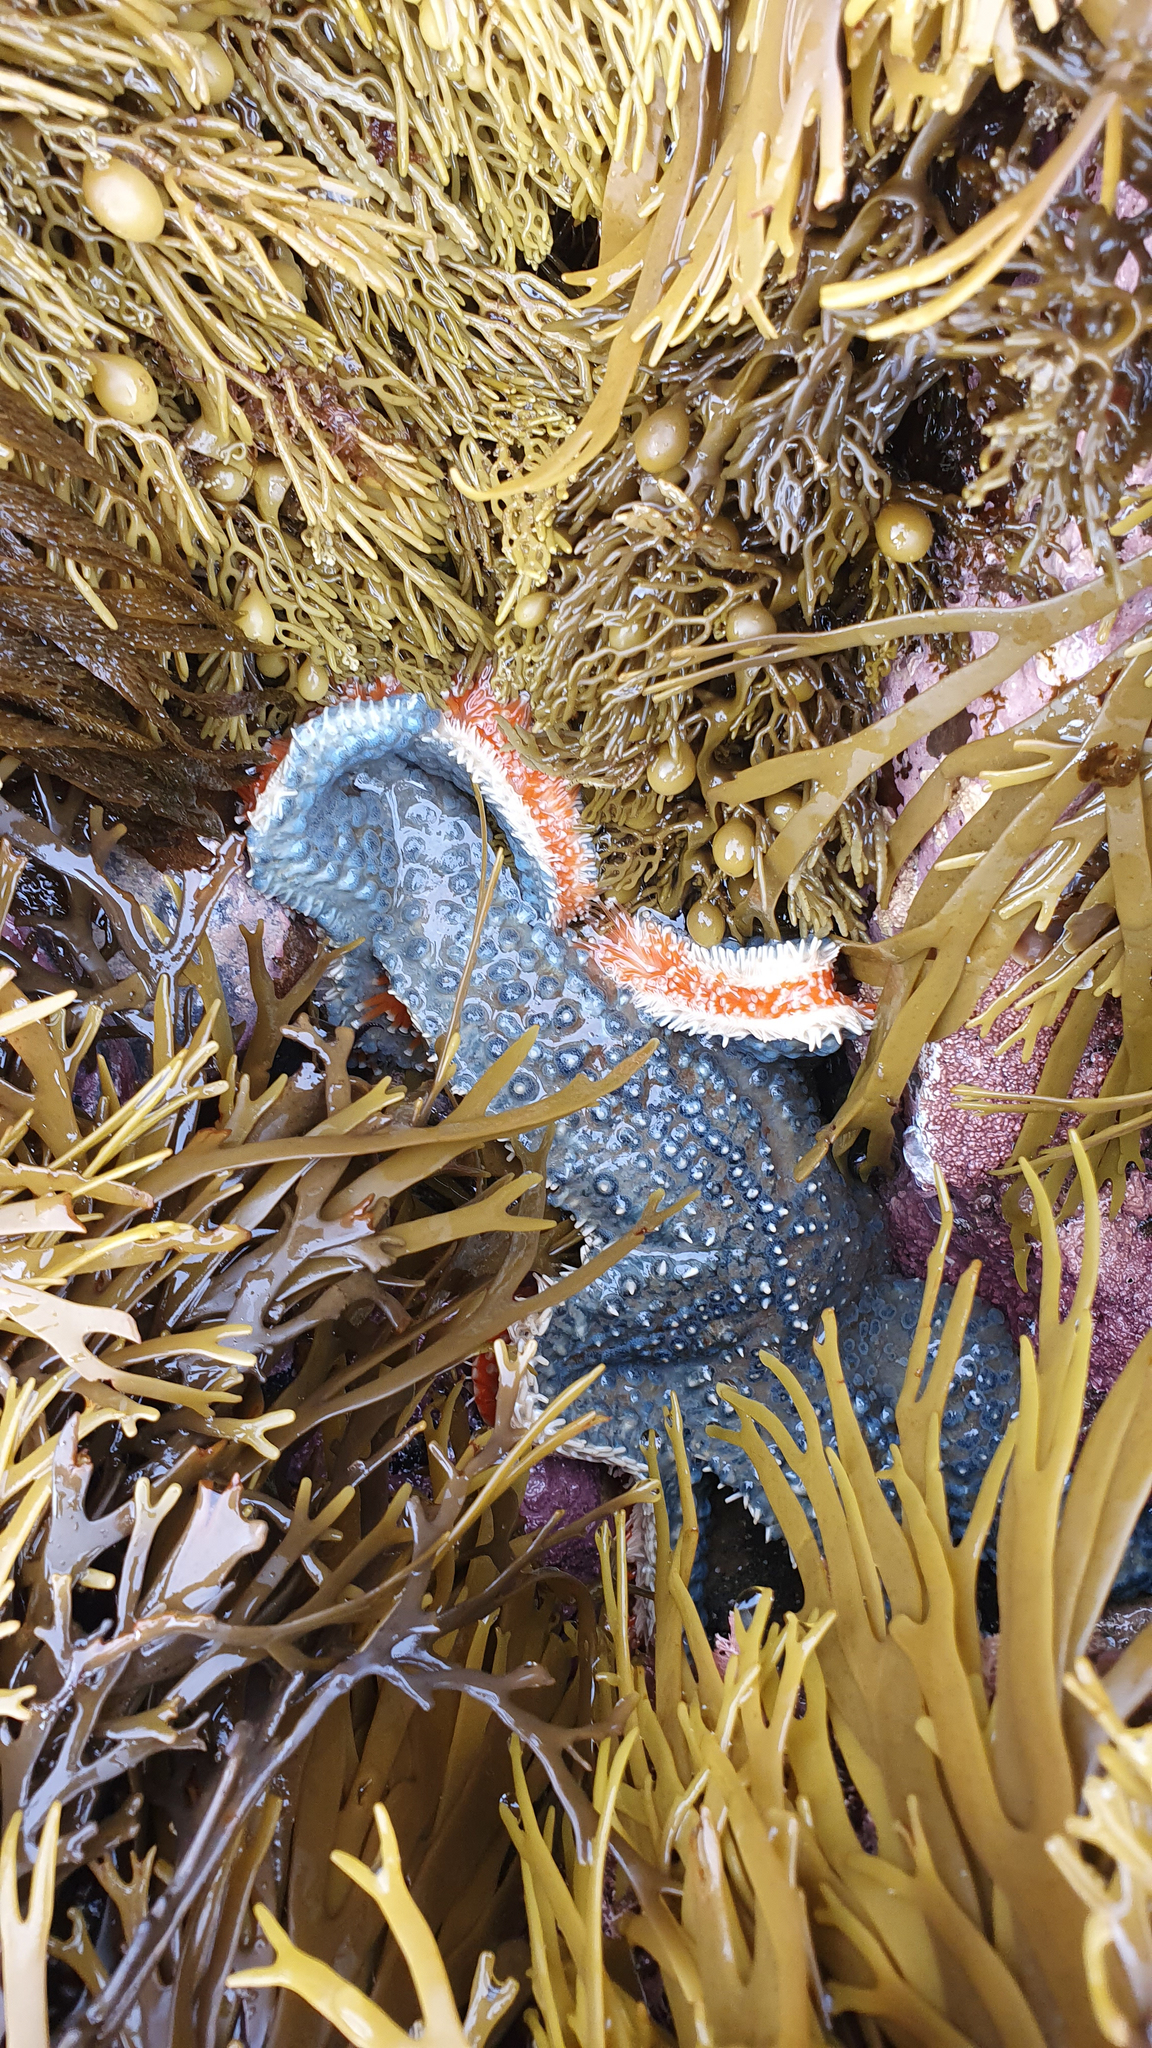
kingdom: Animalia
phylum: Echinodermata
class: Asteroidea
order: Forcipulatida
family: Asteriidae
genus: Astrostole
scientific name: Astrostole scabra
